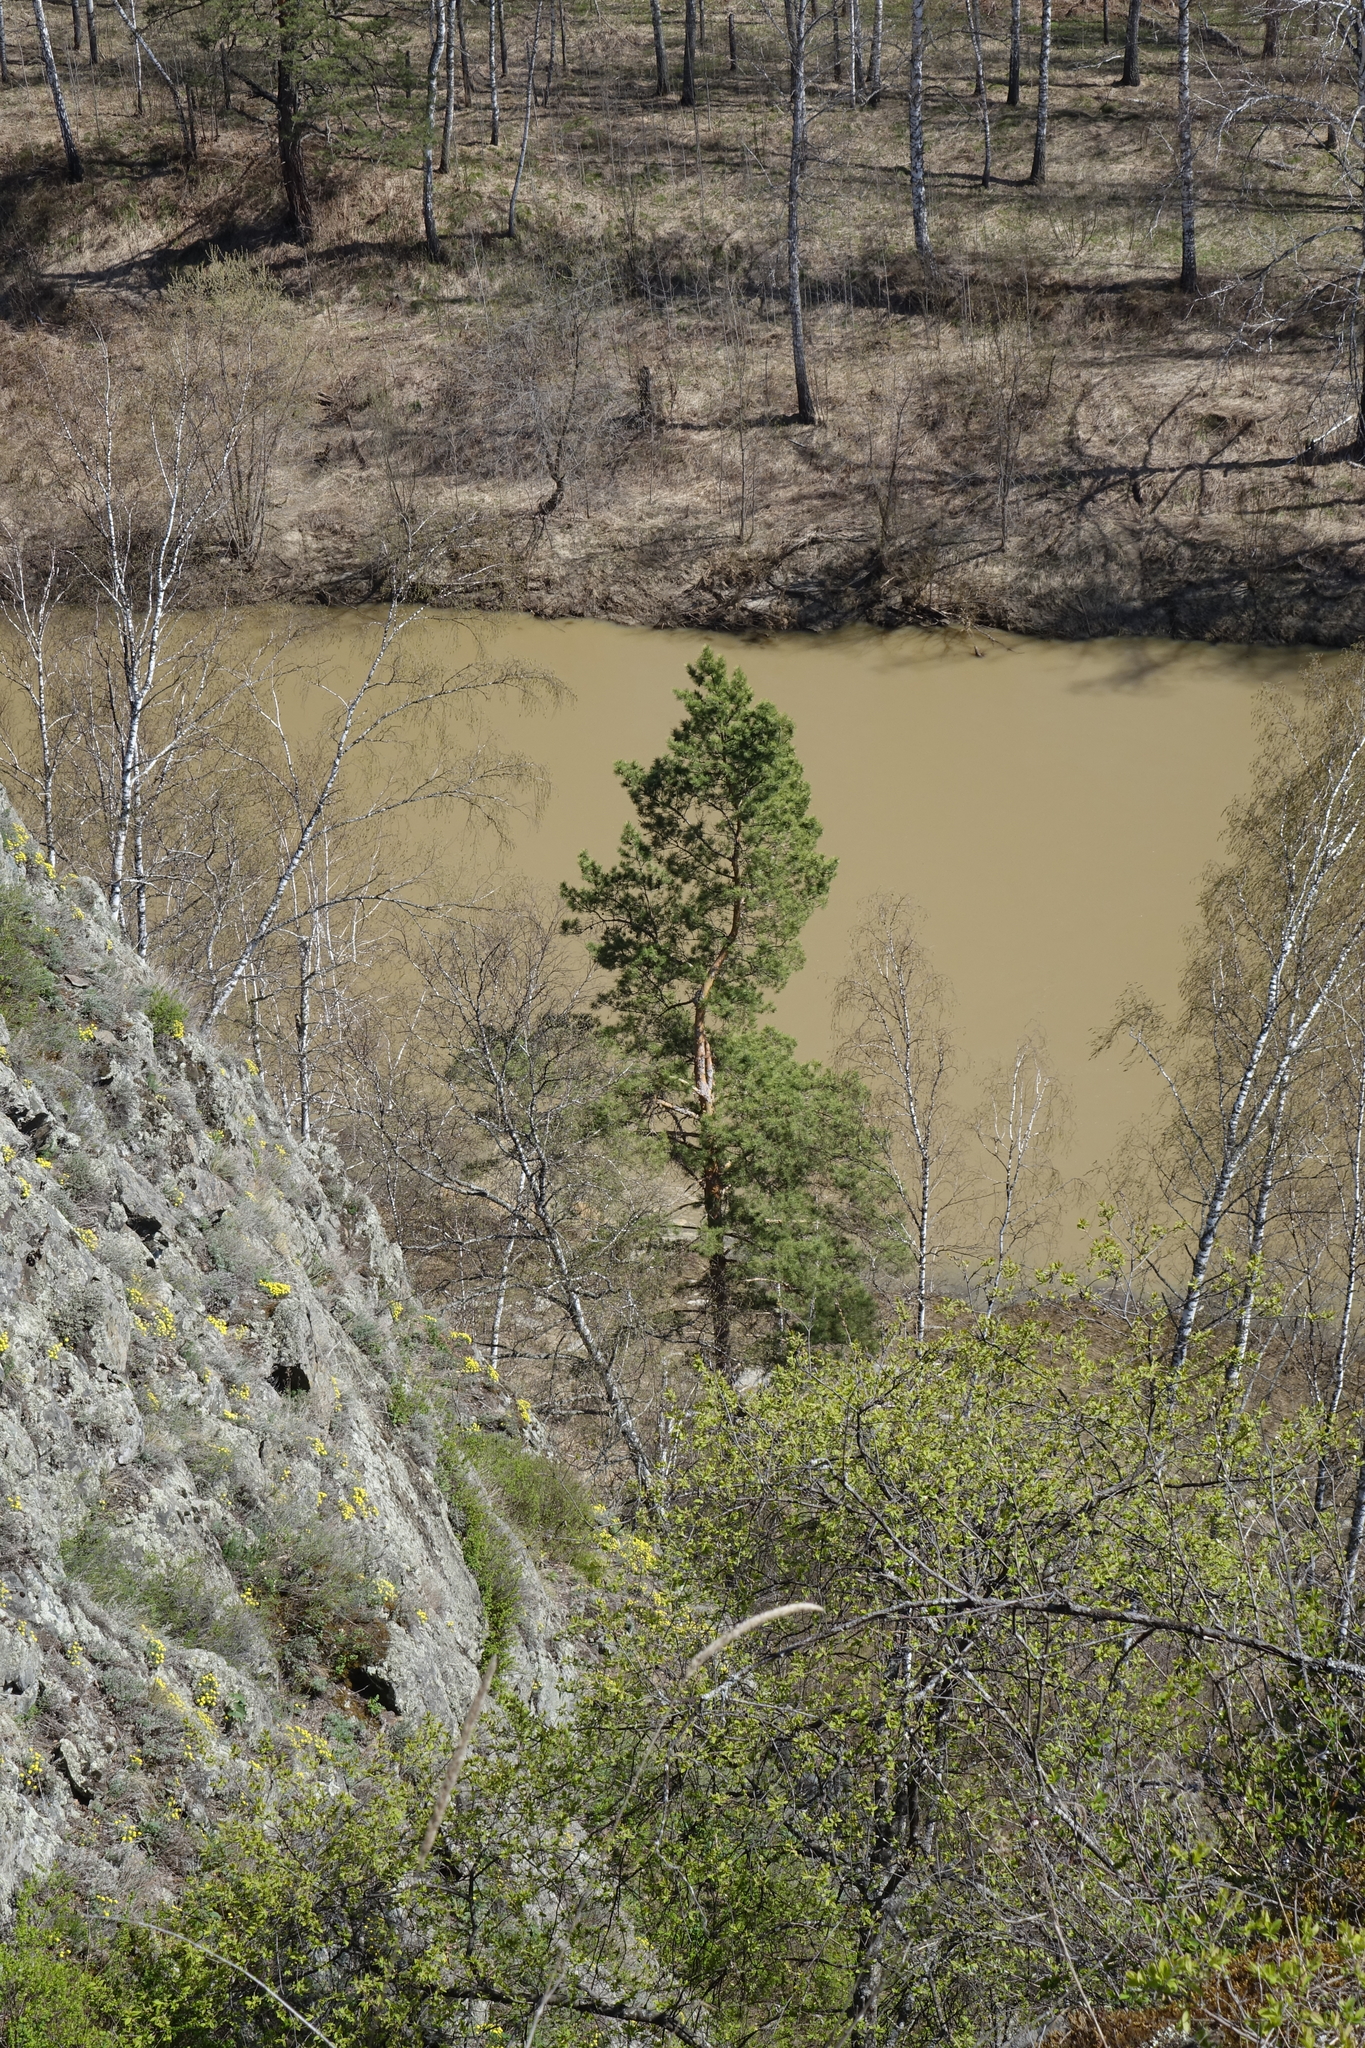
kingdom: Plantae
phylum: Tracheophyta
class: Pinopsida
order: Pinales
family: Pinaceae
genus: Pinus
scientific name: Pinus sylvestris
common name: Scots pine
